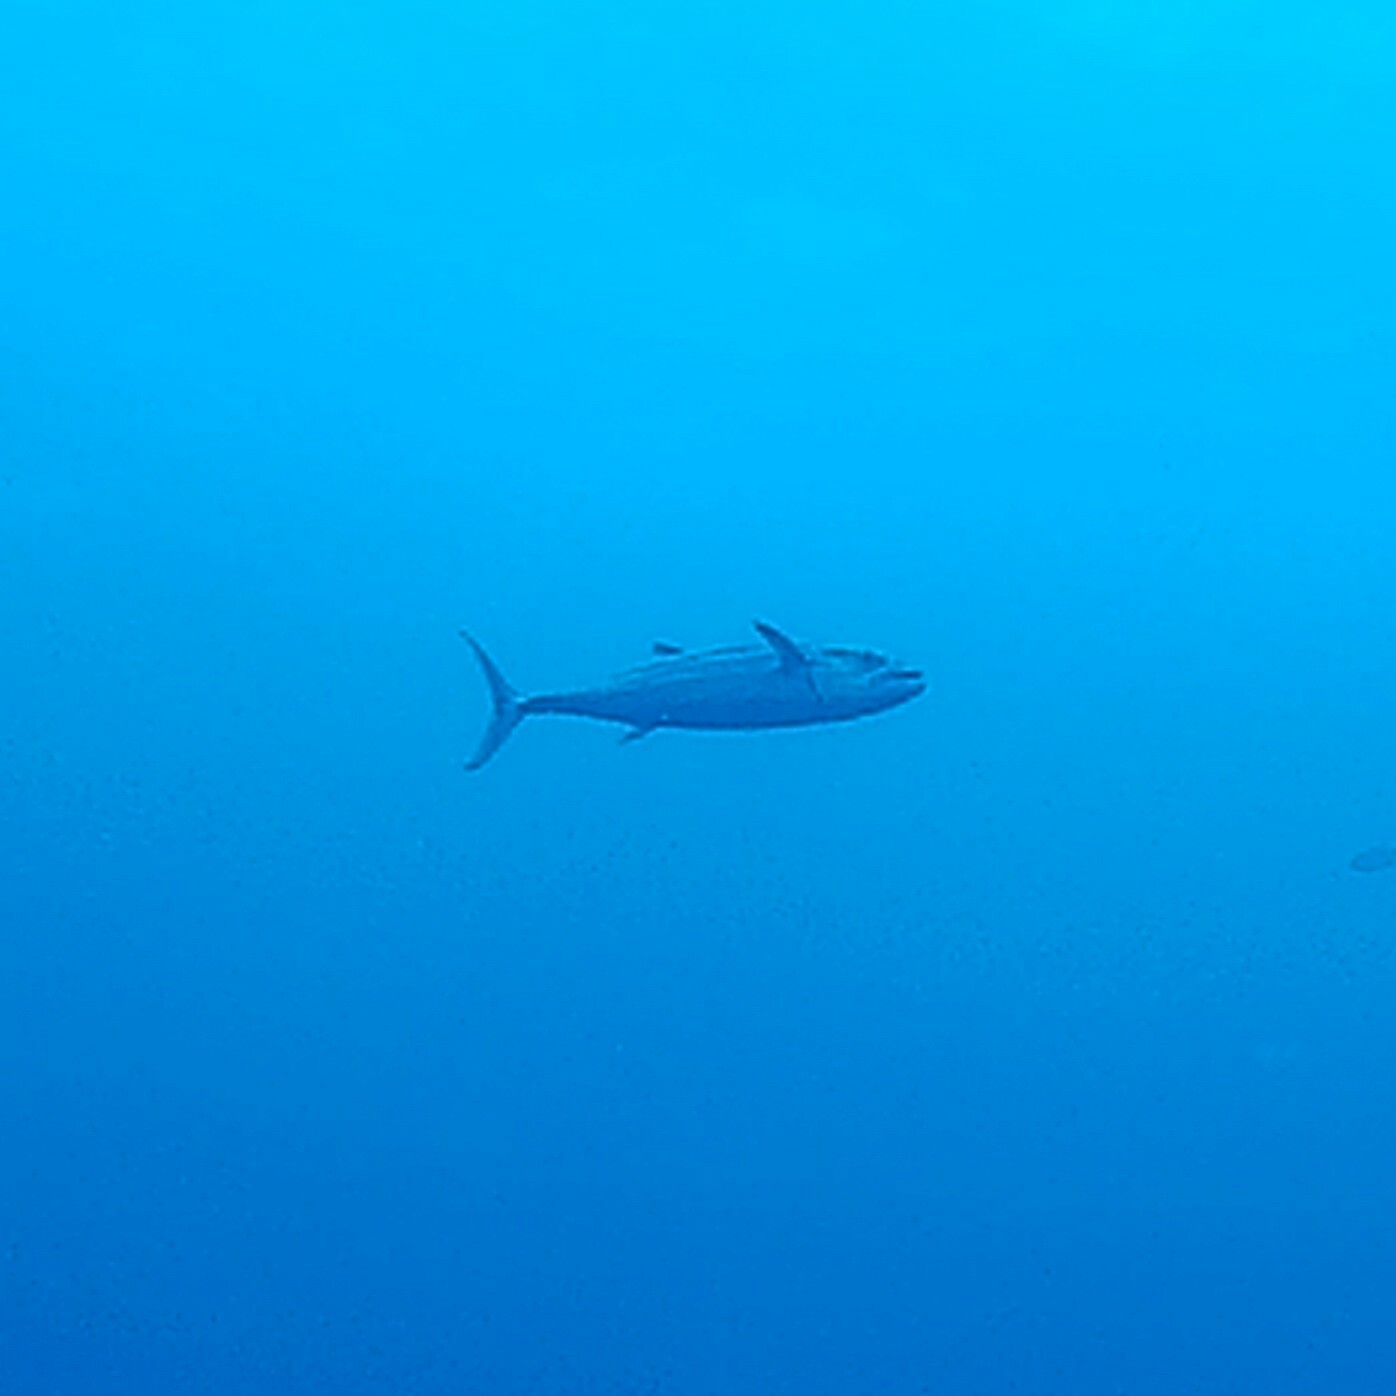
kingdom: Animalia
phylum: Chordata
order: Perciformes
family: Scombridae
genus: Gymnosarda
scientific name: Gymnosarda unicolor
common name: Dogtooth tuna
